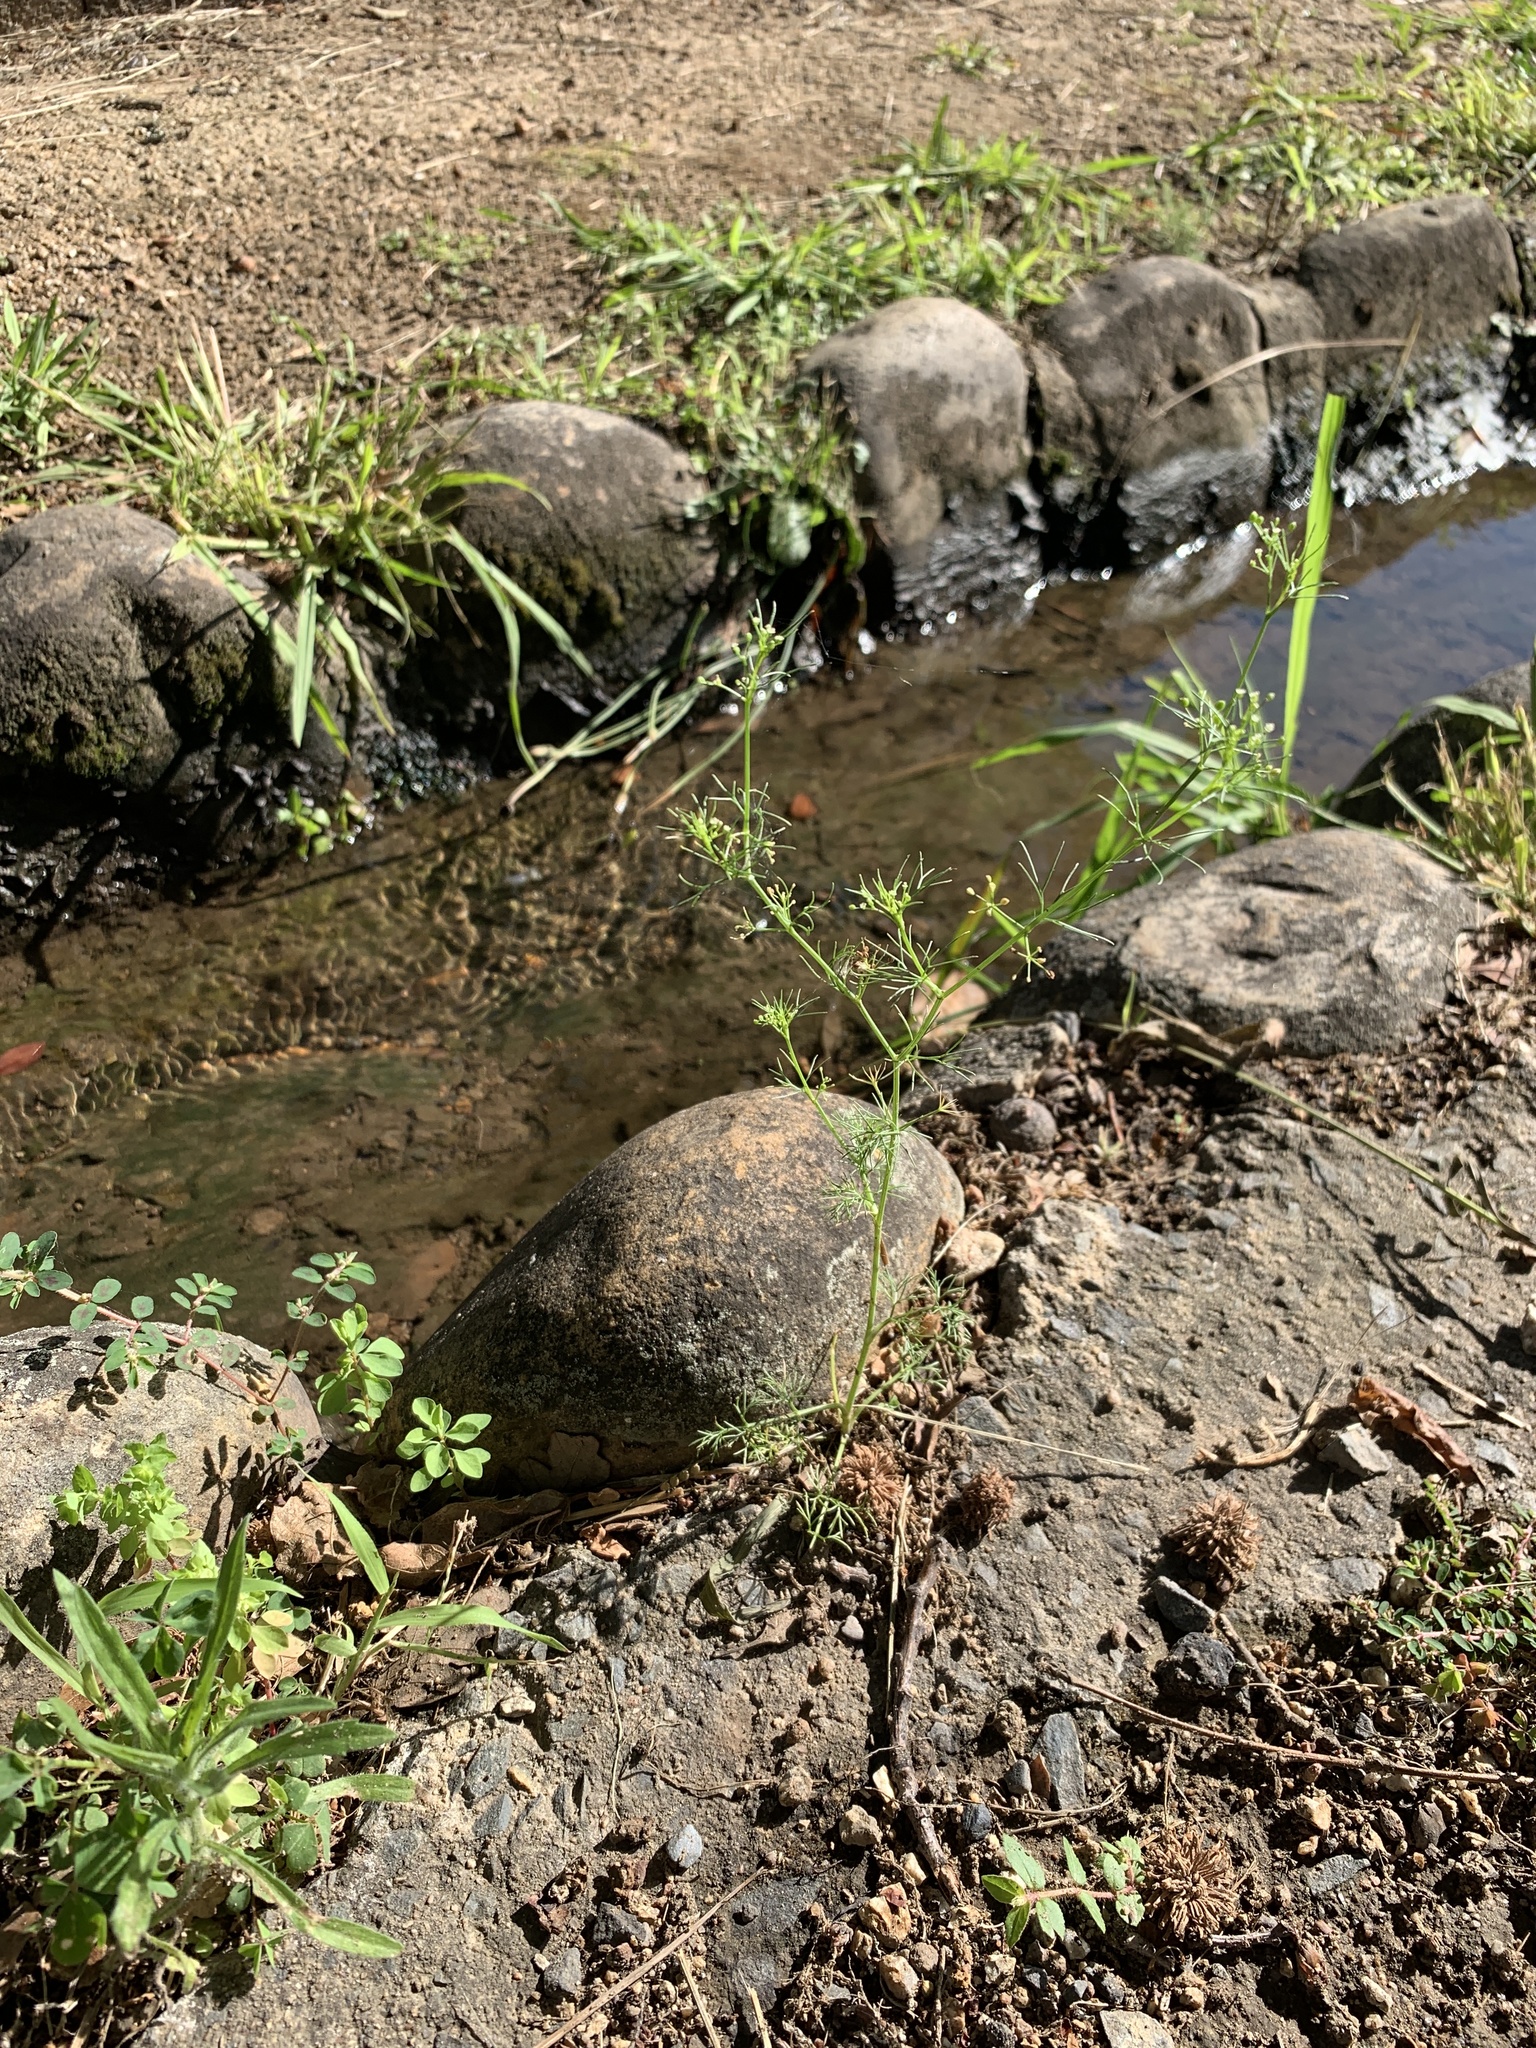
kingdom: Plantae
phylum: Tracheophyta
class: Magnoliopsida
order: Apiales
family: Apiaceae
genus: Cyclospermum
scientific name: Cyclospermum leptophyllum
